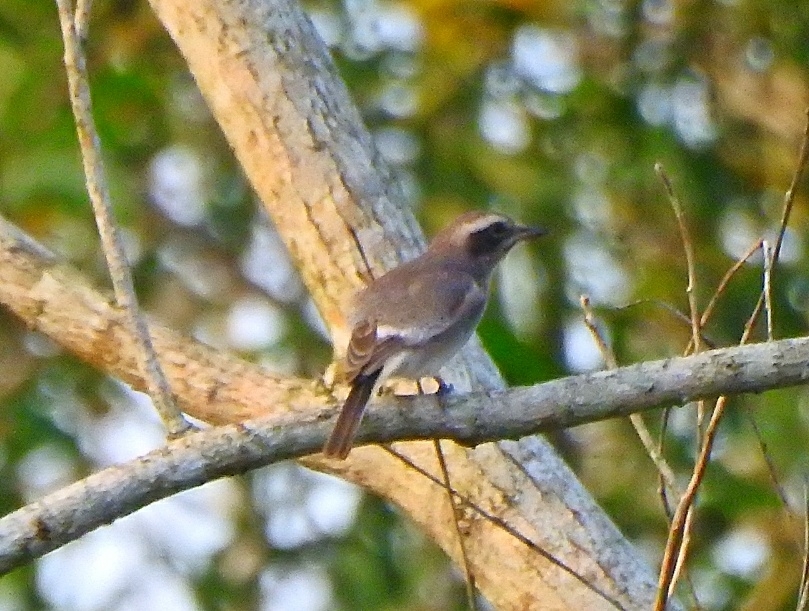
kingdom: Animalia
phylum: Chordata
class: Aves
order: Passeriformes
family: Tephrodornithidae
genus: Tephrodornis
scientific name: Tephrodornis pondicerianus
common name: Common woodshrike
